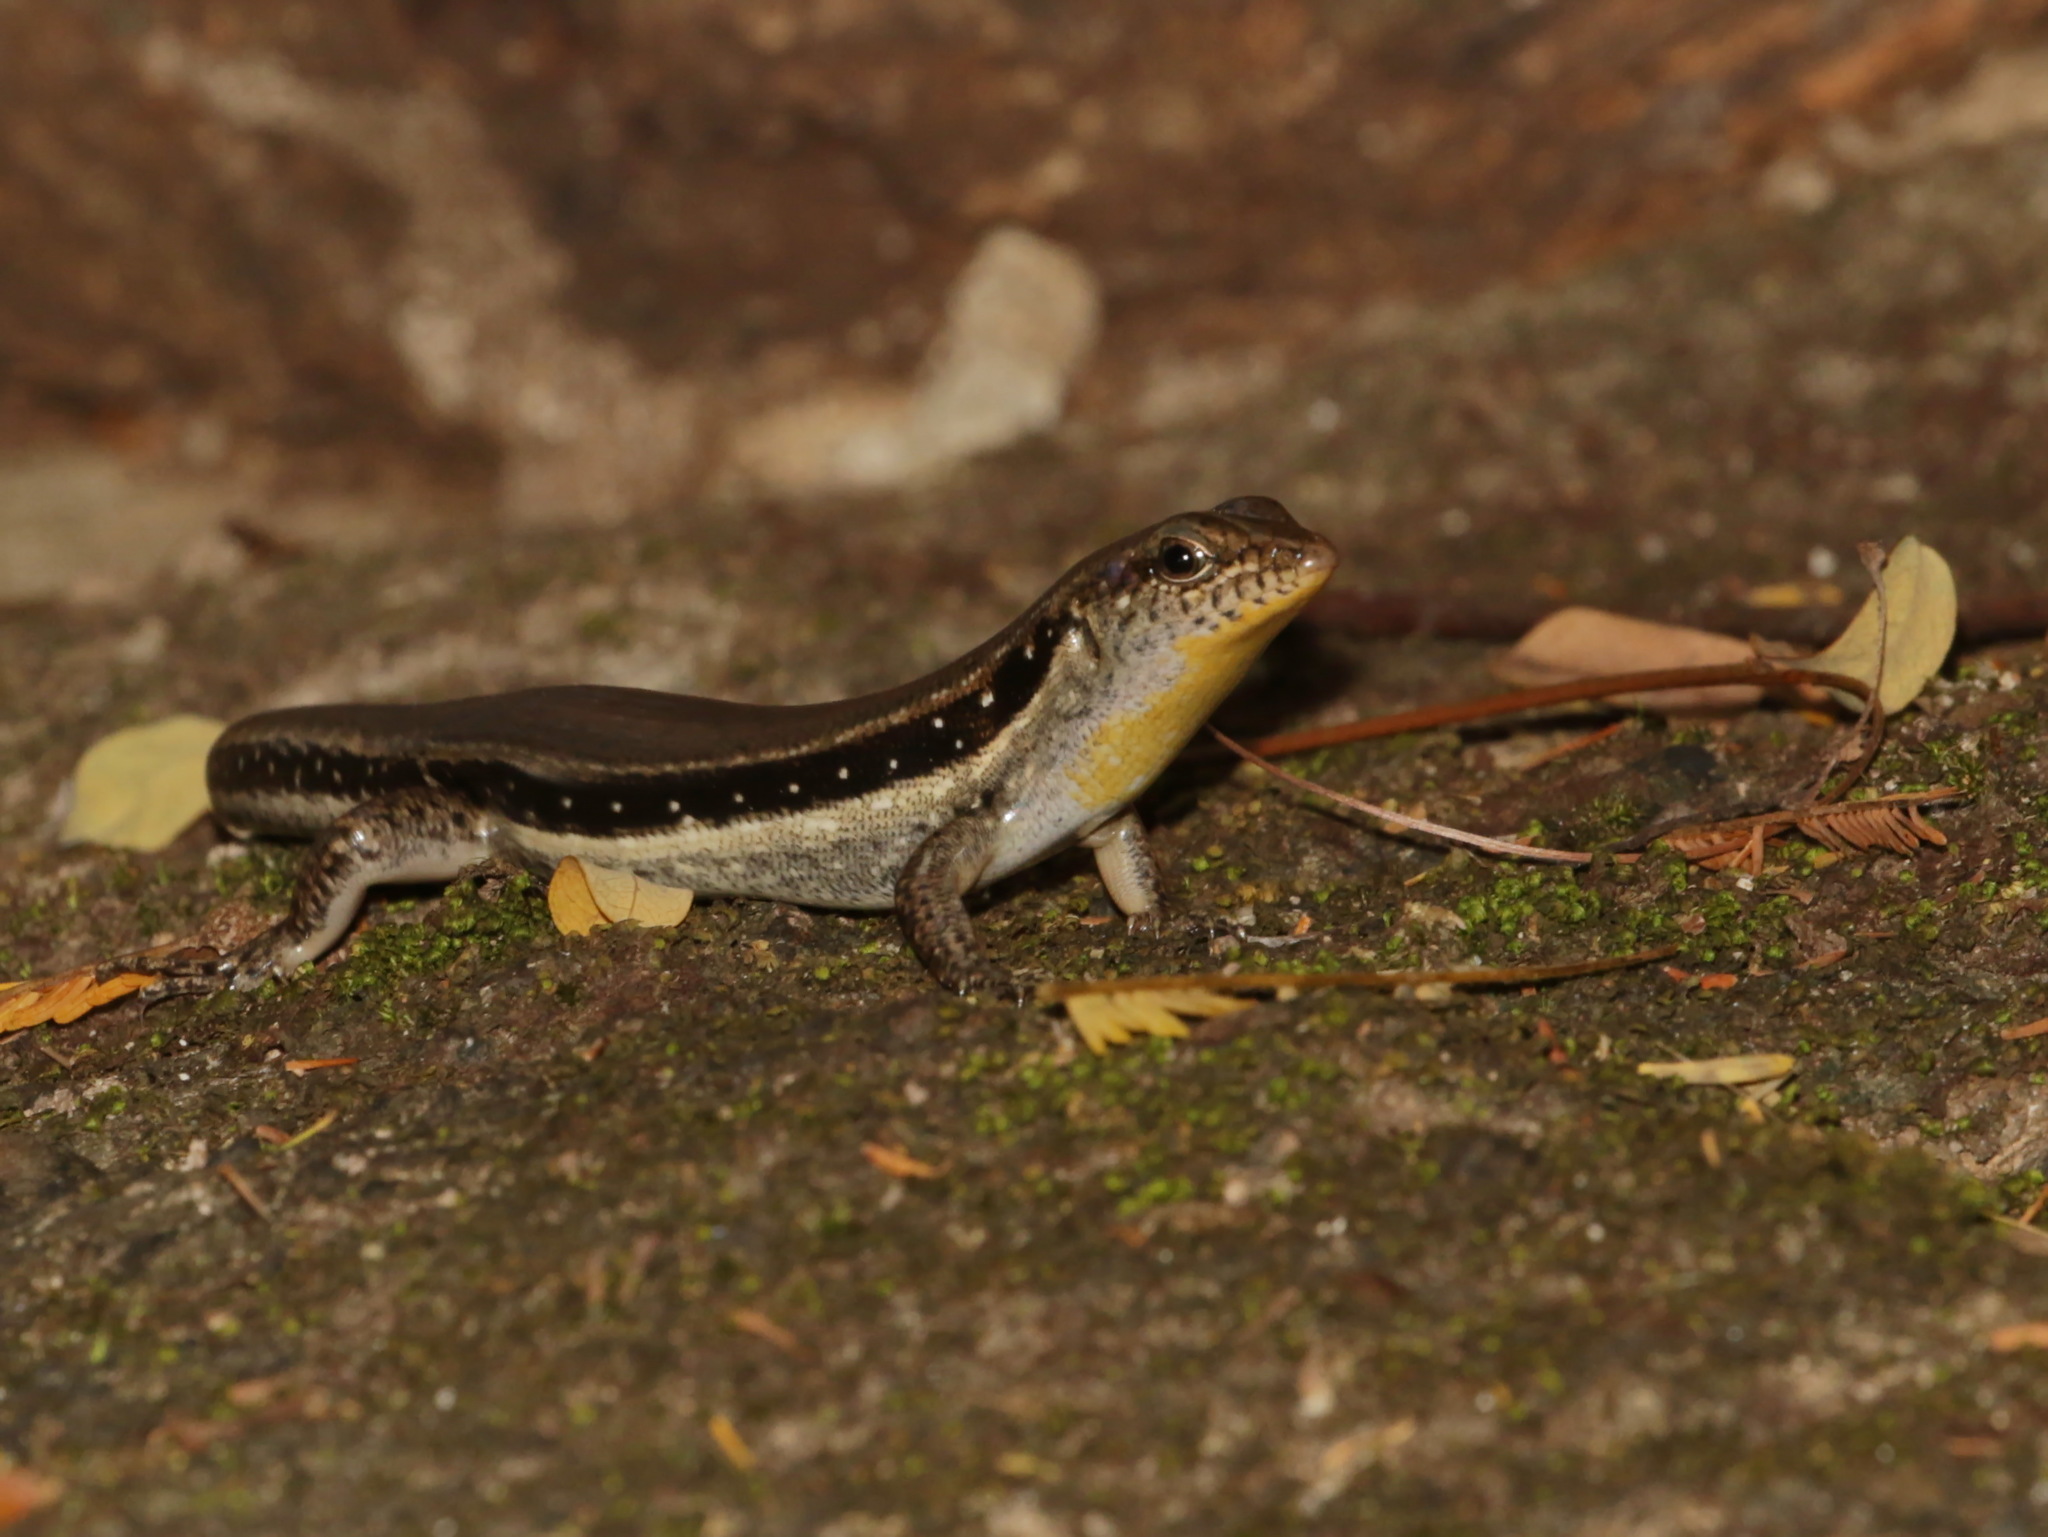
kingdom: Animalia
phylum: Chordata
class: Squamata
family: Scincidae
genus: Sphenomorphus
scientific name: Sphenomorphus lineopunctulatus
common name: Line-spotted forest skink
